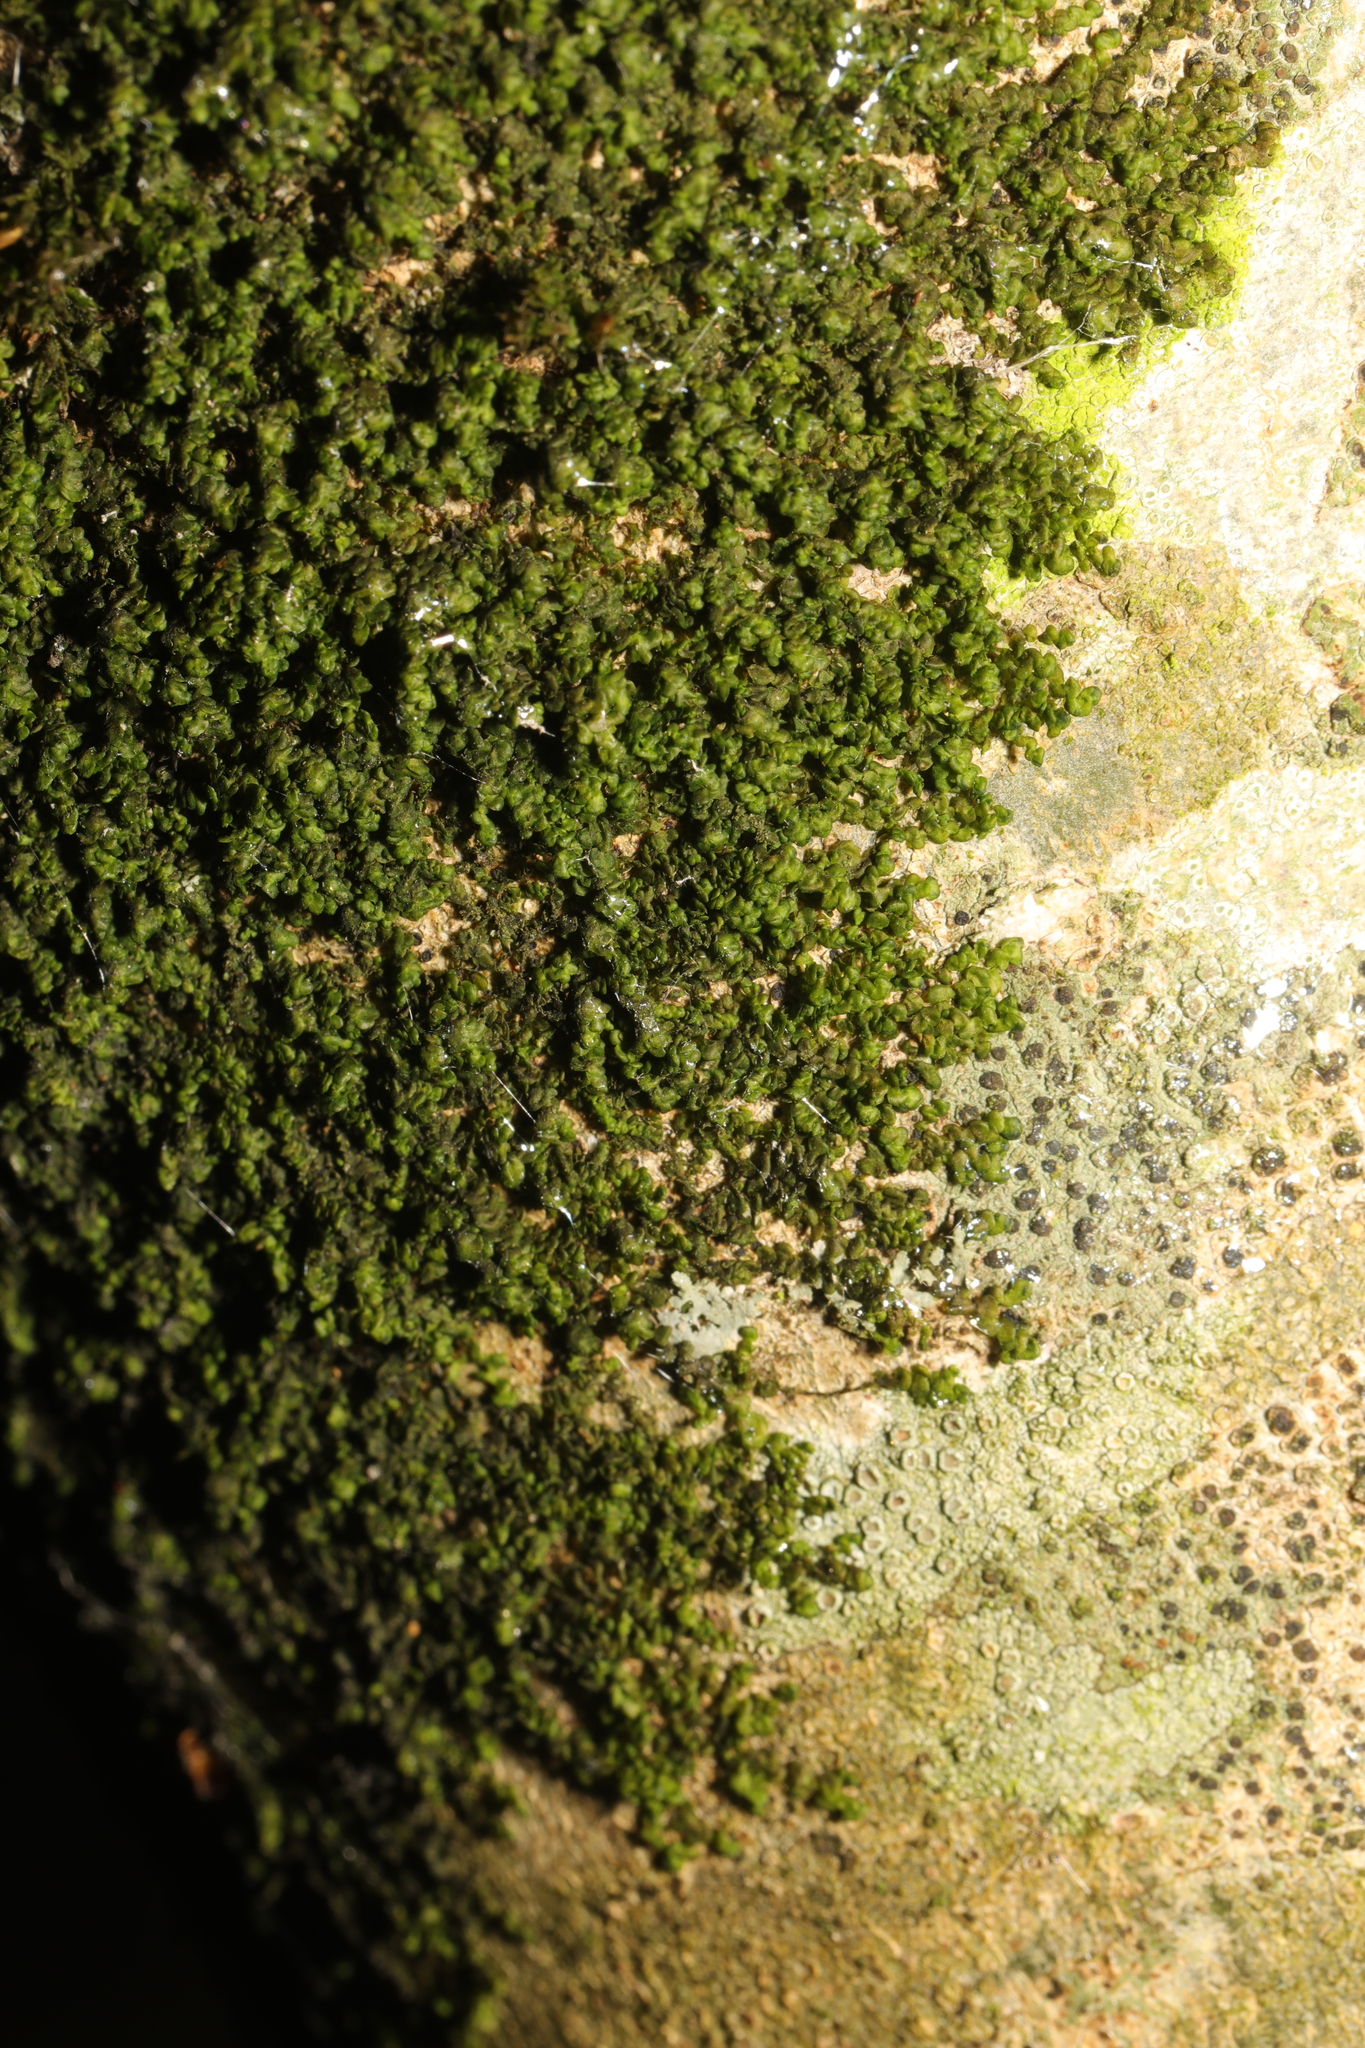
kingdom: Plantae
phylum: Marchantiophyta
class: Jungermanniopsida
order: Porellales
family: Frullaniaceae
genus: Frullania
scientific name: Frullania dilatata
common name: Dilated scalewort
